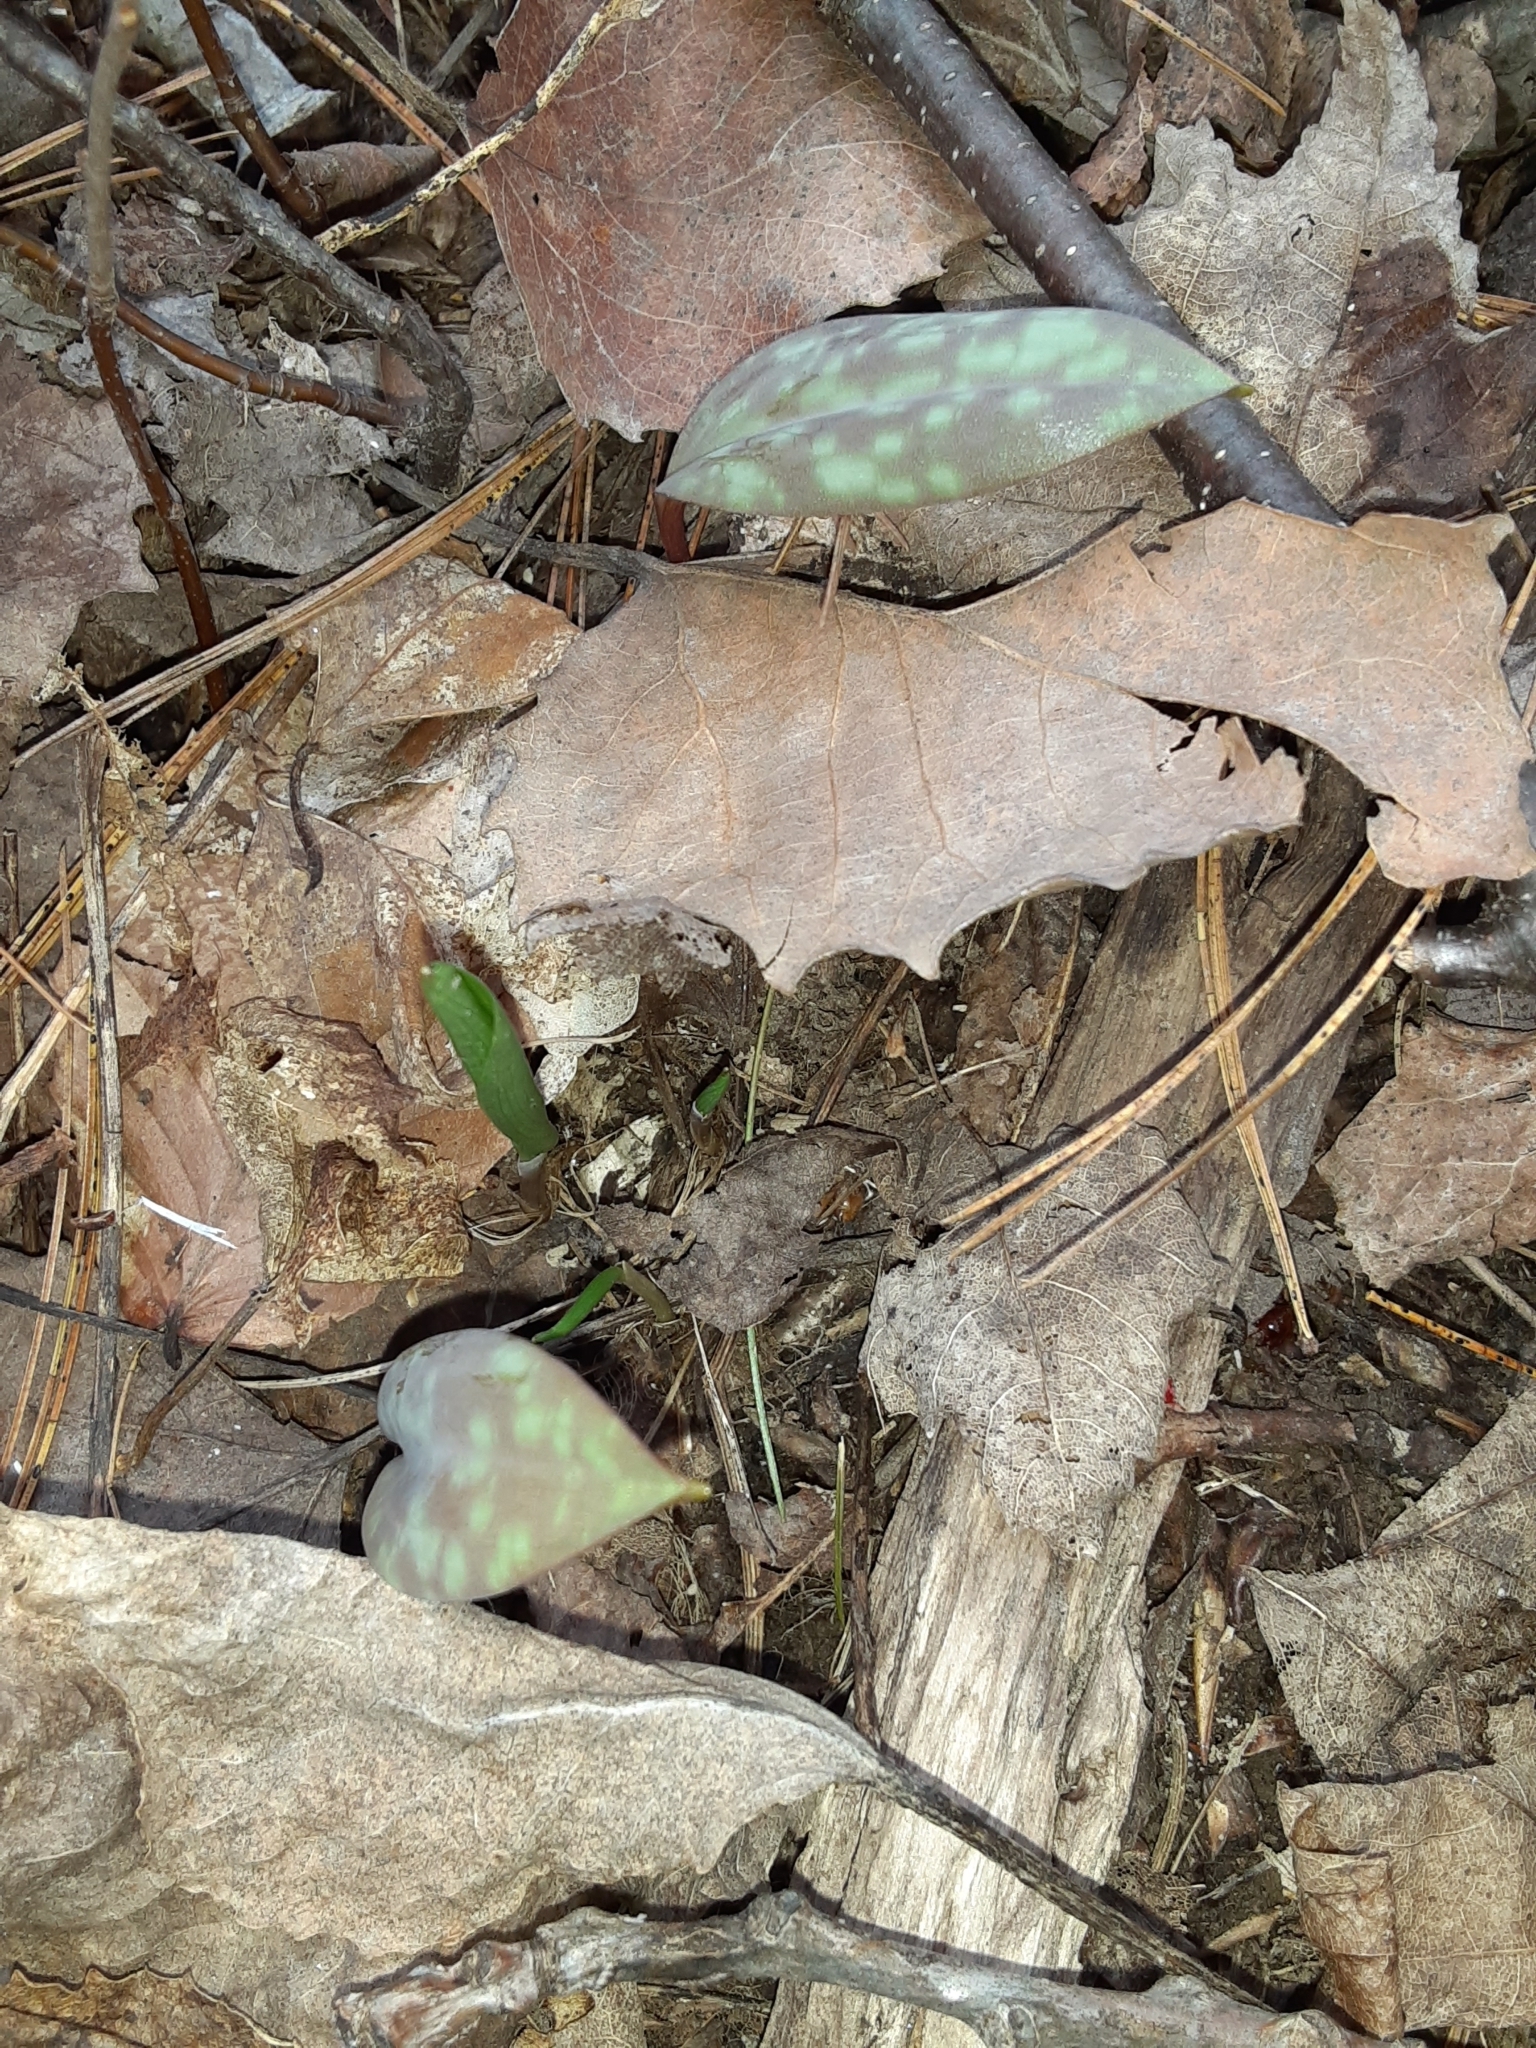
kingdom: Plantae
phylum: Tracheophyta
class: Liliopsida
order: Liliales
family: Liliaceae
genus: Erythronium
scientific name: Erythronium americanum
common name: Yellow adder's-tongue
